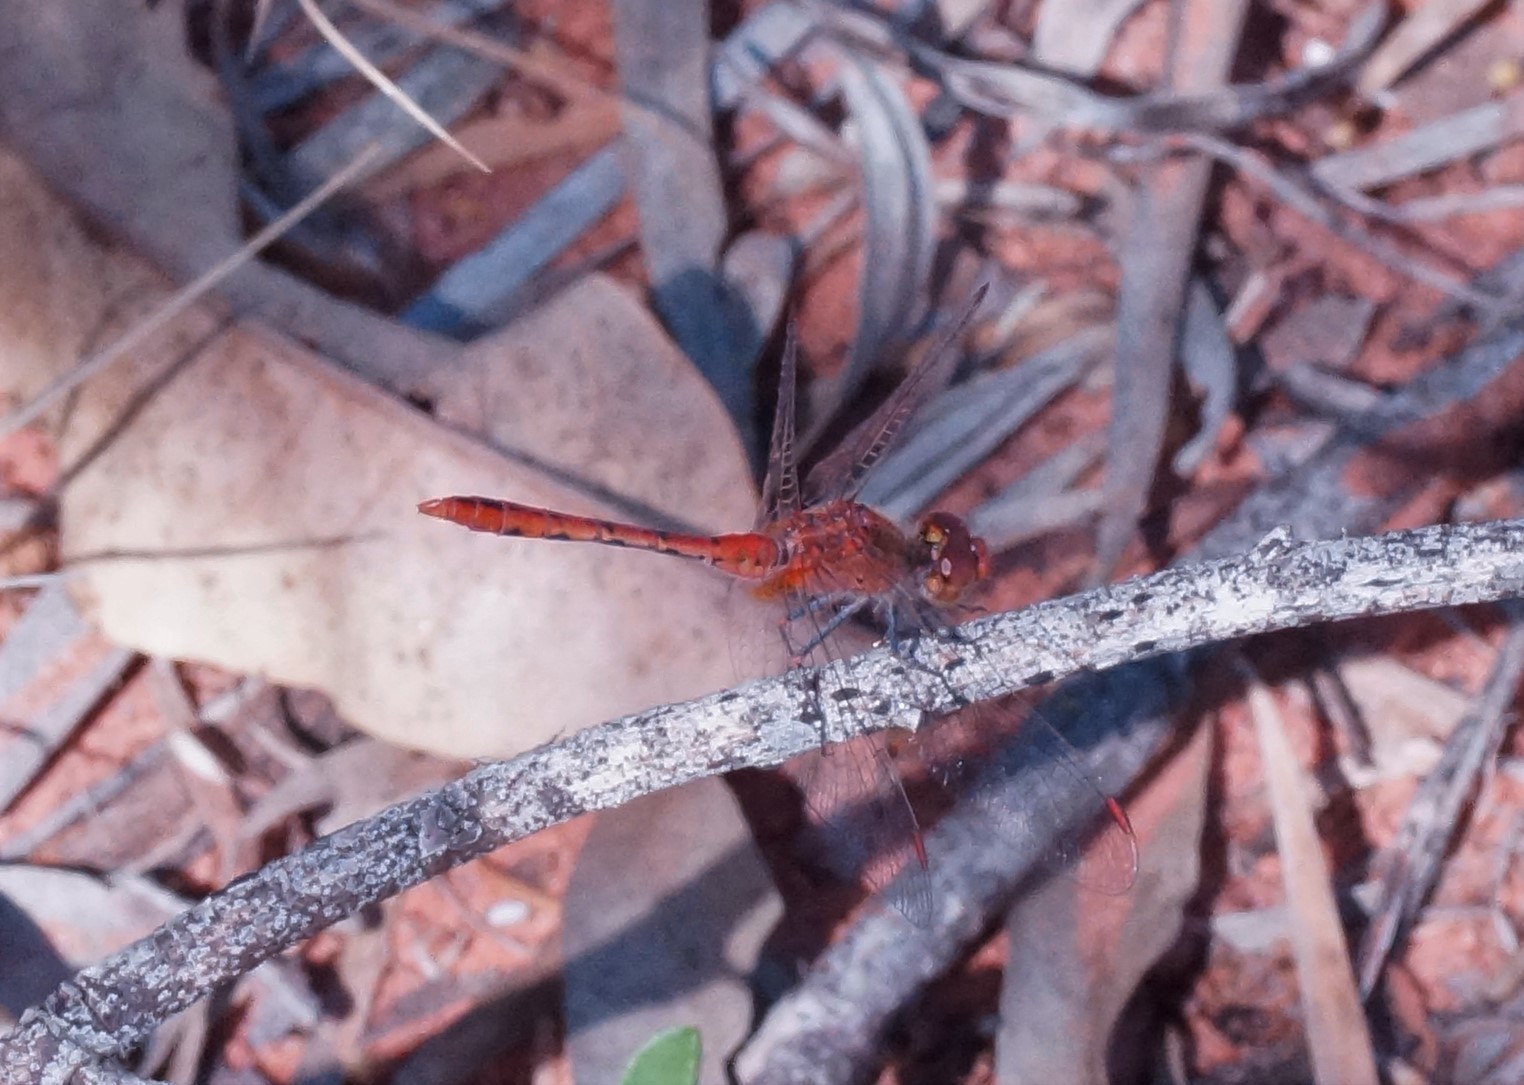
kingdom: Animalia
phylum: Arthropoda
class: Insecta
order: Odonata
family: Libellulidae
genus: Diplacodes
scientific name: Diplacodes bipunctata
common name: Red percher dragonfly
